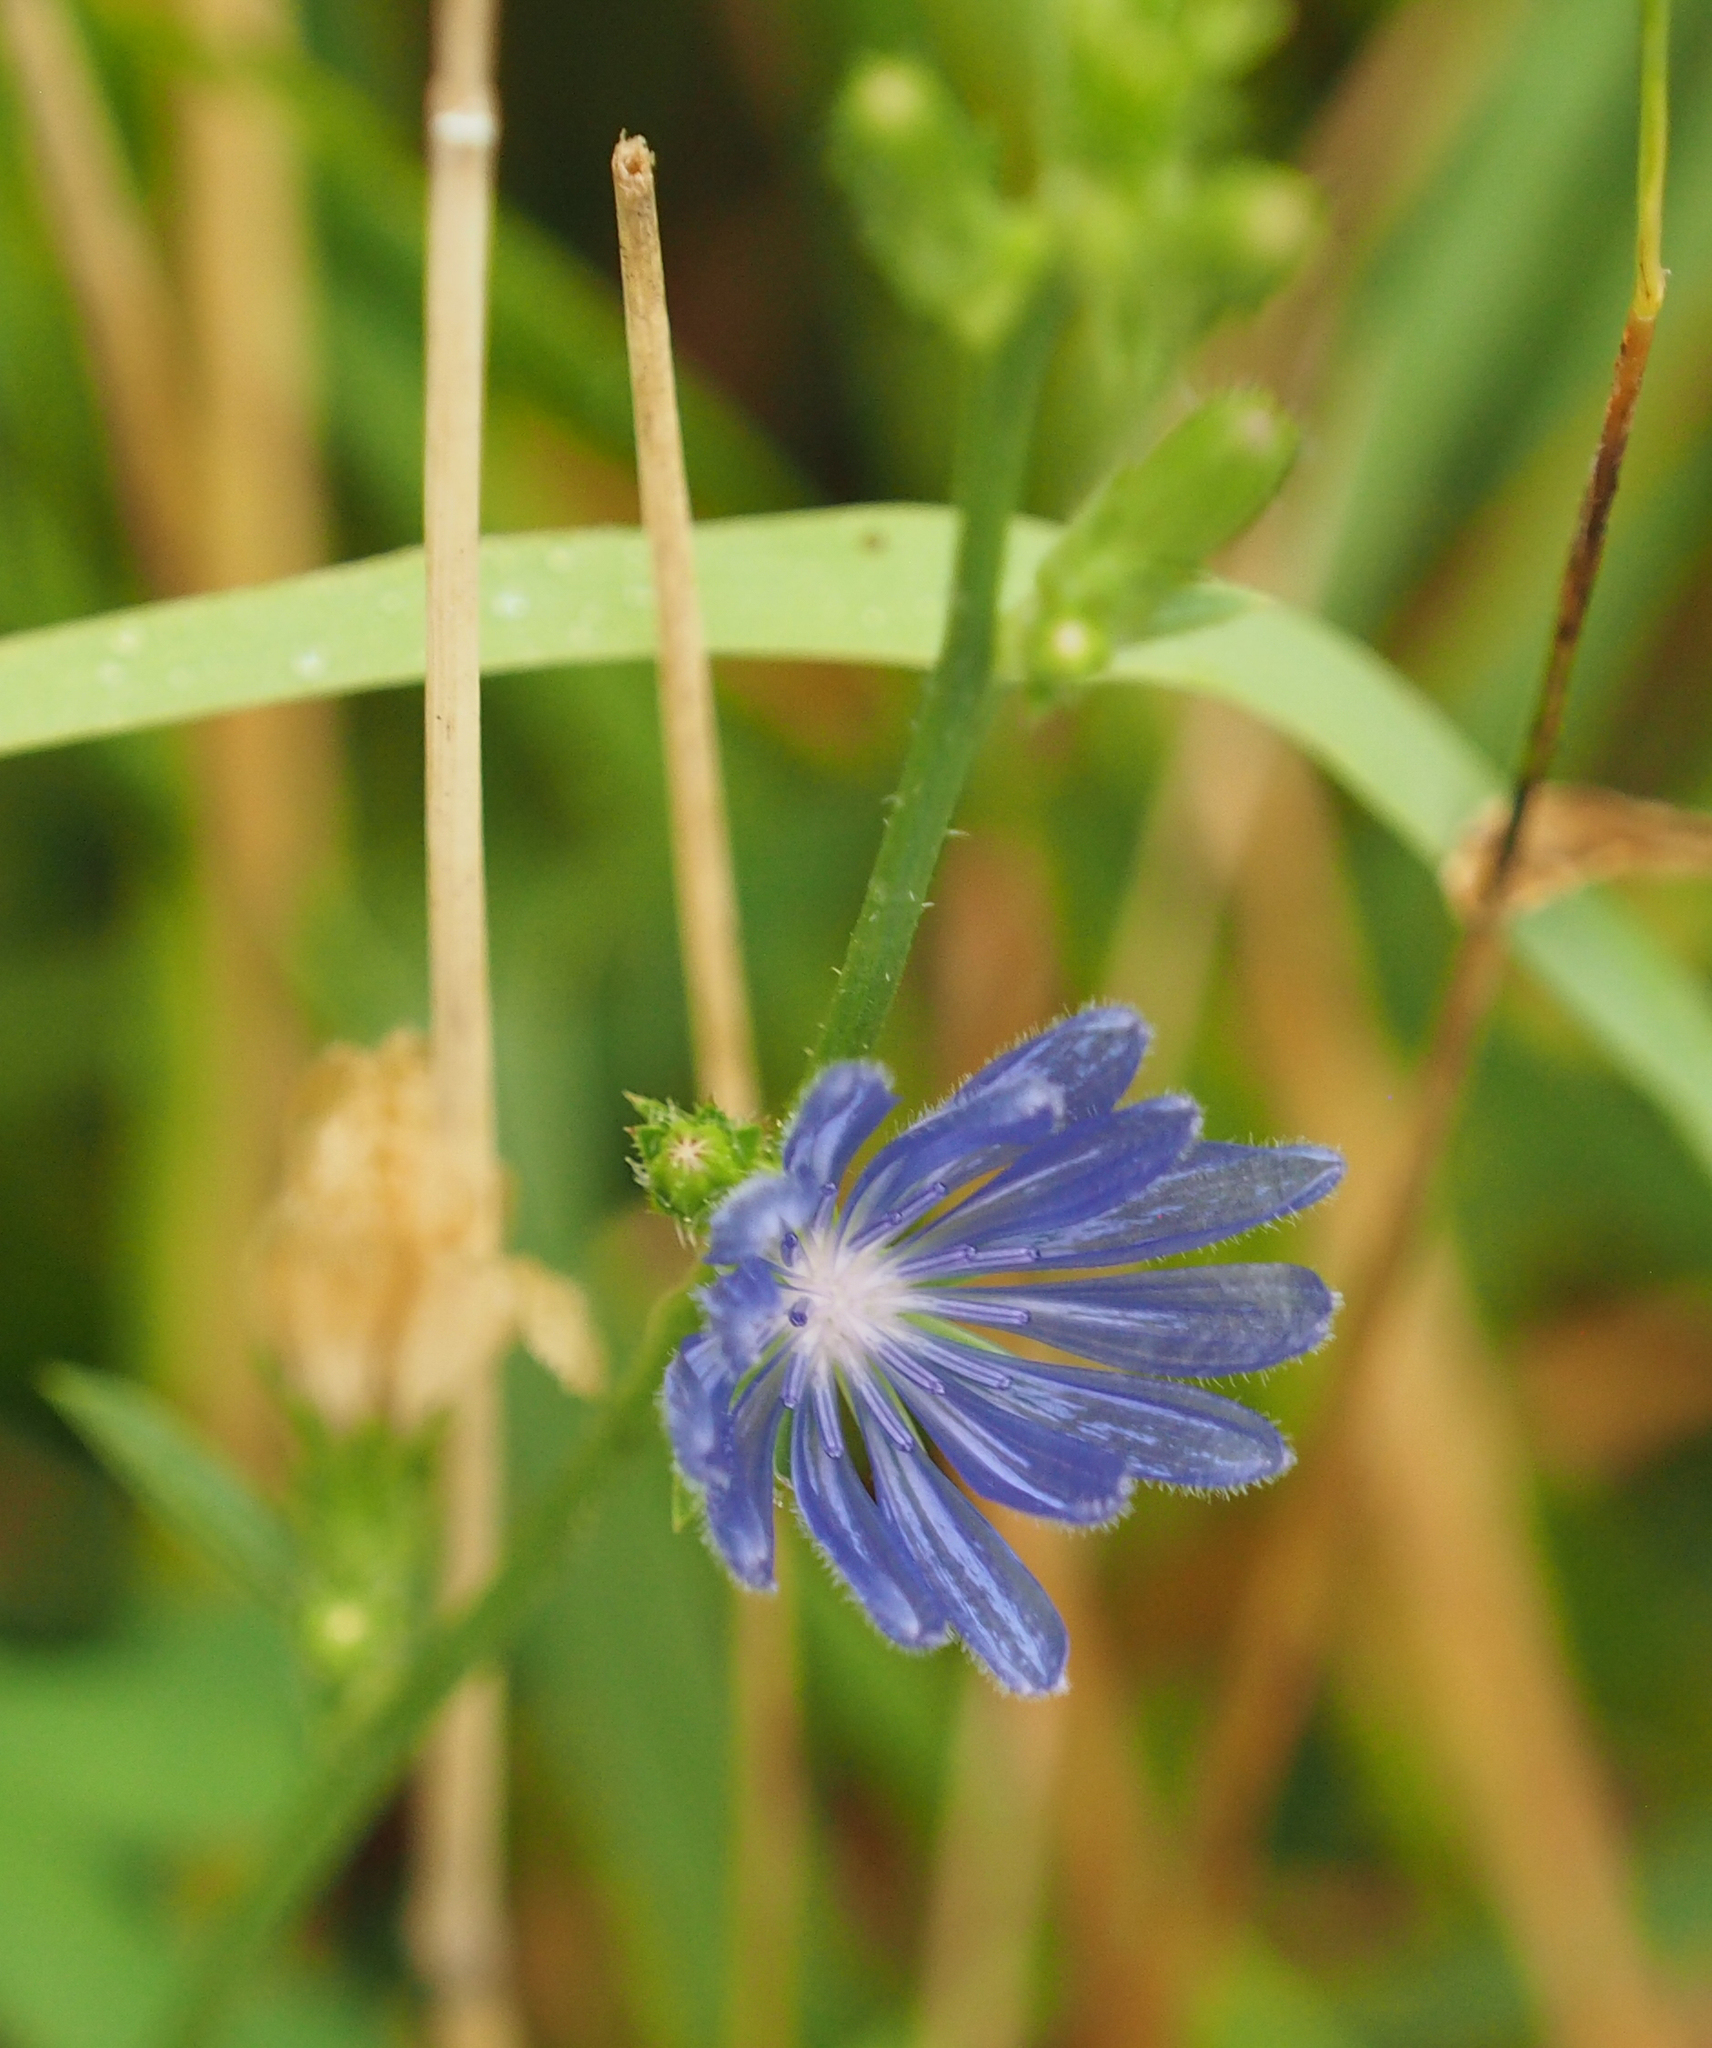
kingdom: Plantae
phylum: Tracheophyta
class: Magnoliopsida
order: Asterales
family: Asteraceae
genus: Cichorium
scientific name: Cichorium intybus
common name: Chicory
